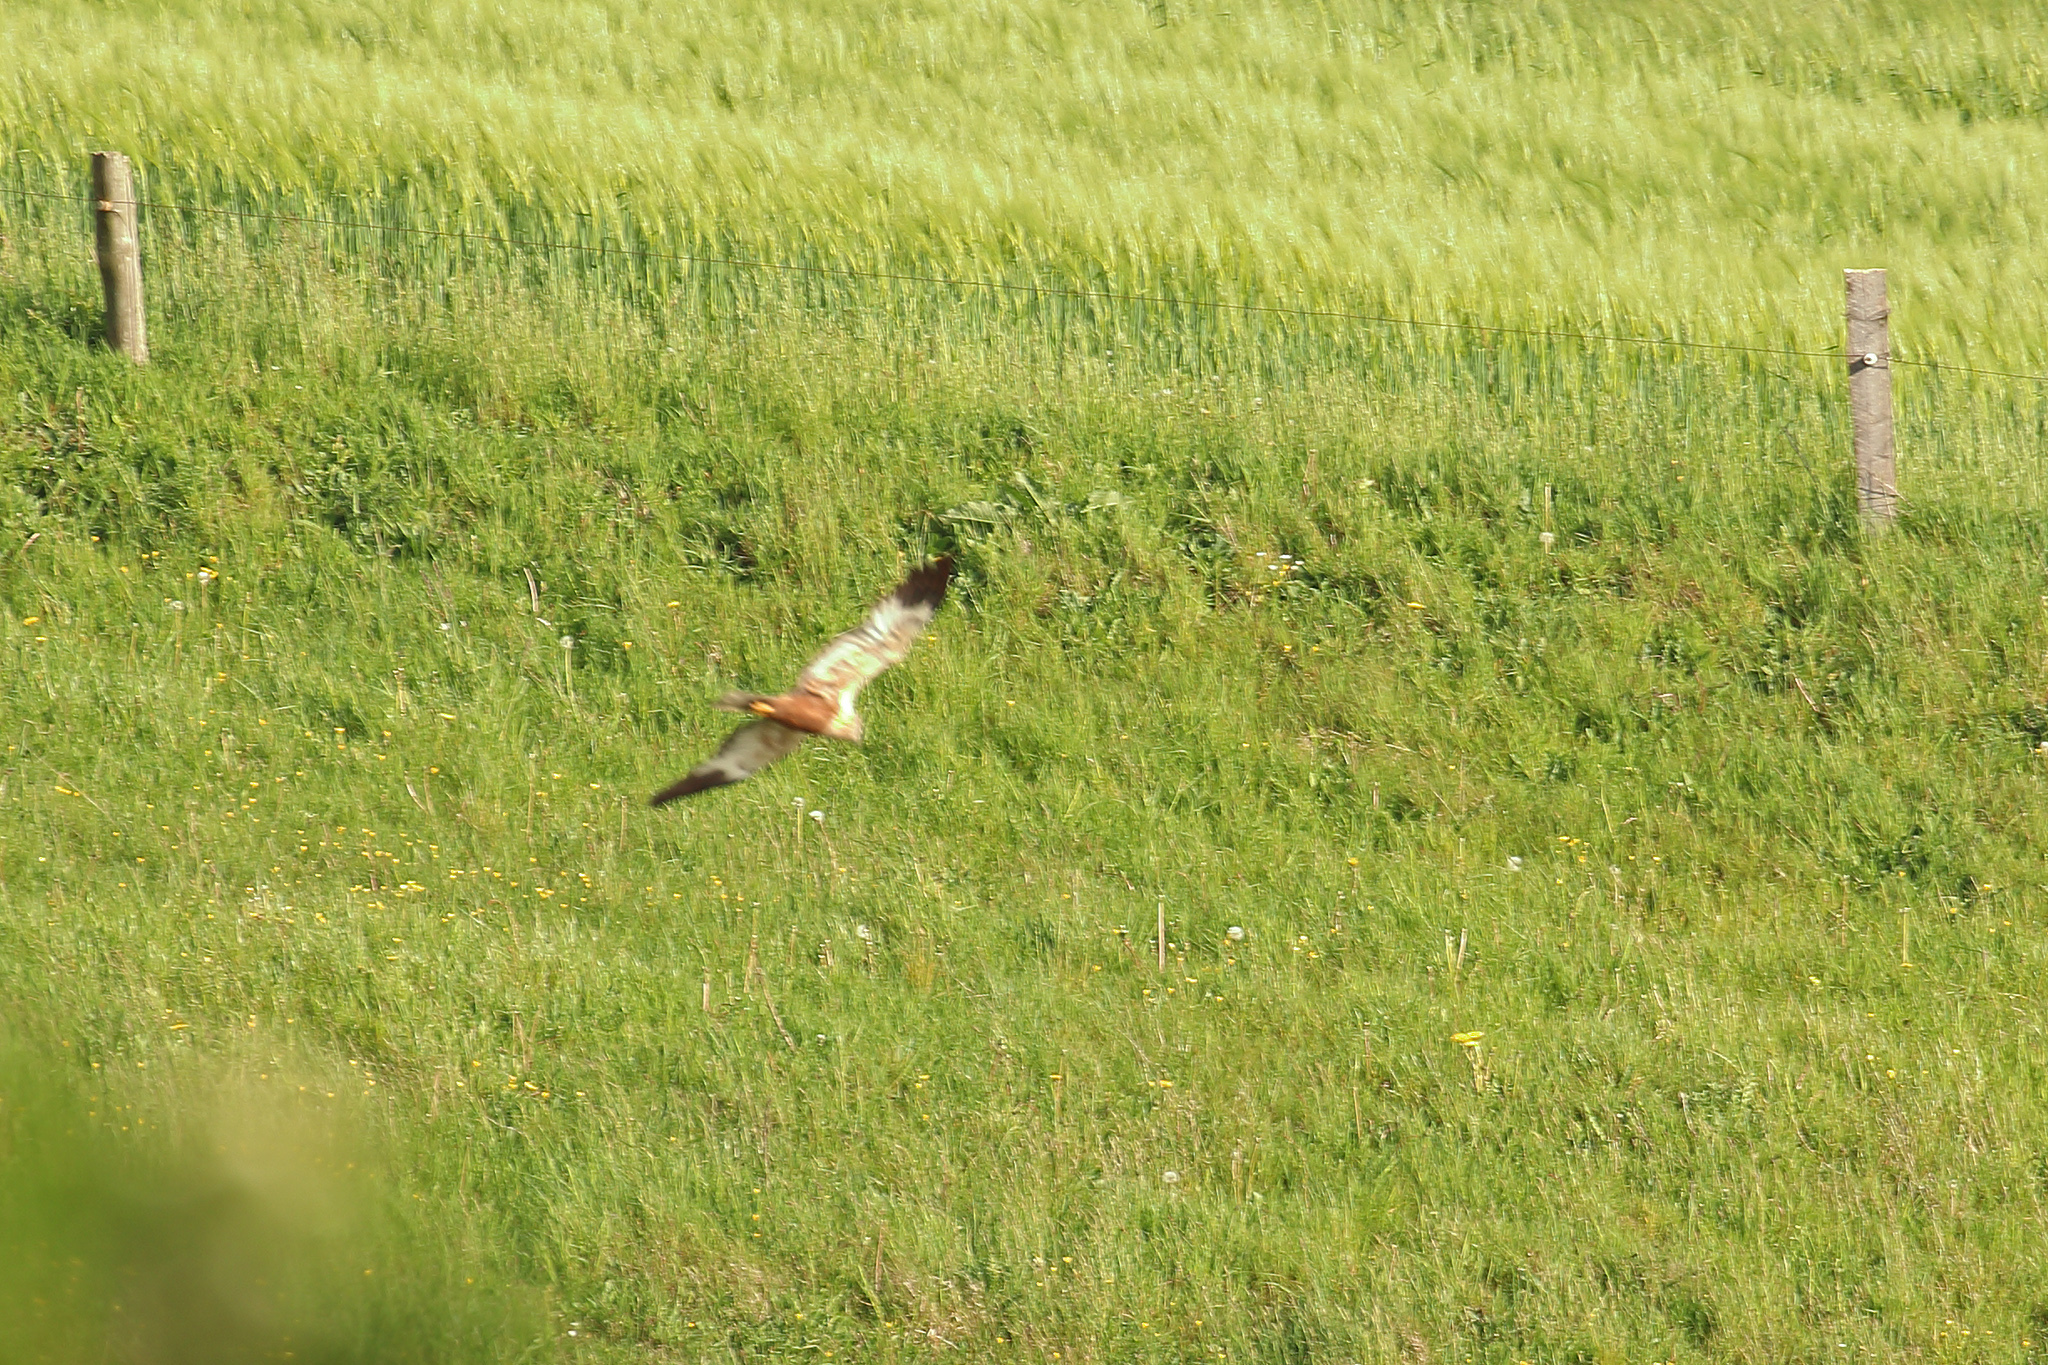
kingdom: Animalia
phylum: Chordata
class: Aves
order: Accipitriformes
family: Accipitridae
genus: Circus
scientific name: Circus aeruginosus
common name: Western marsh harrier
